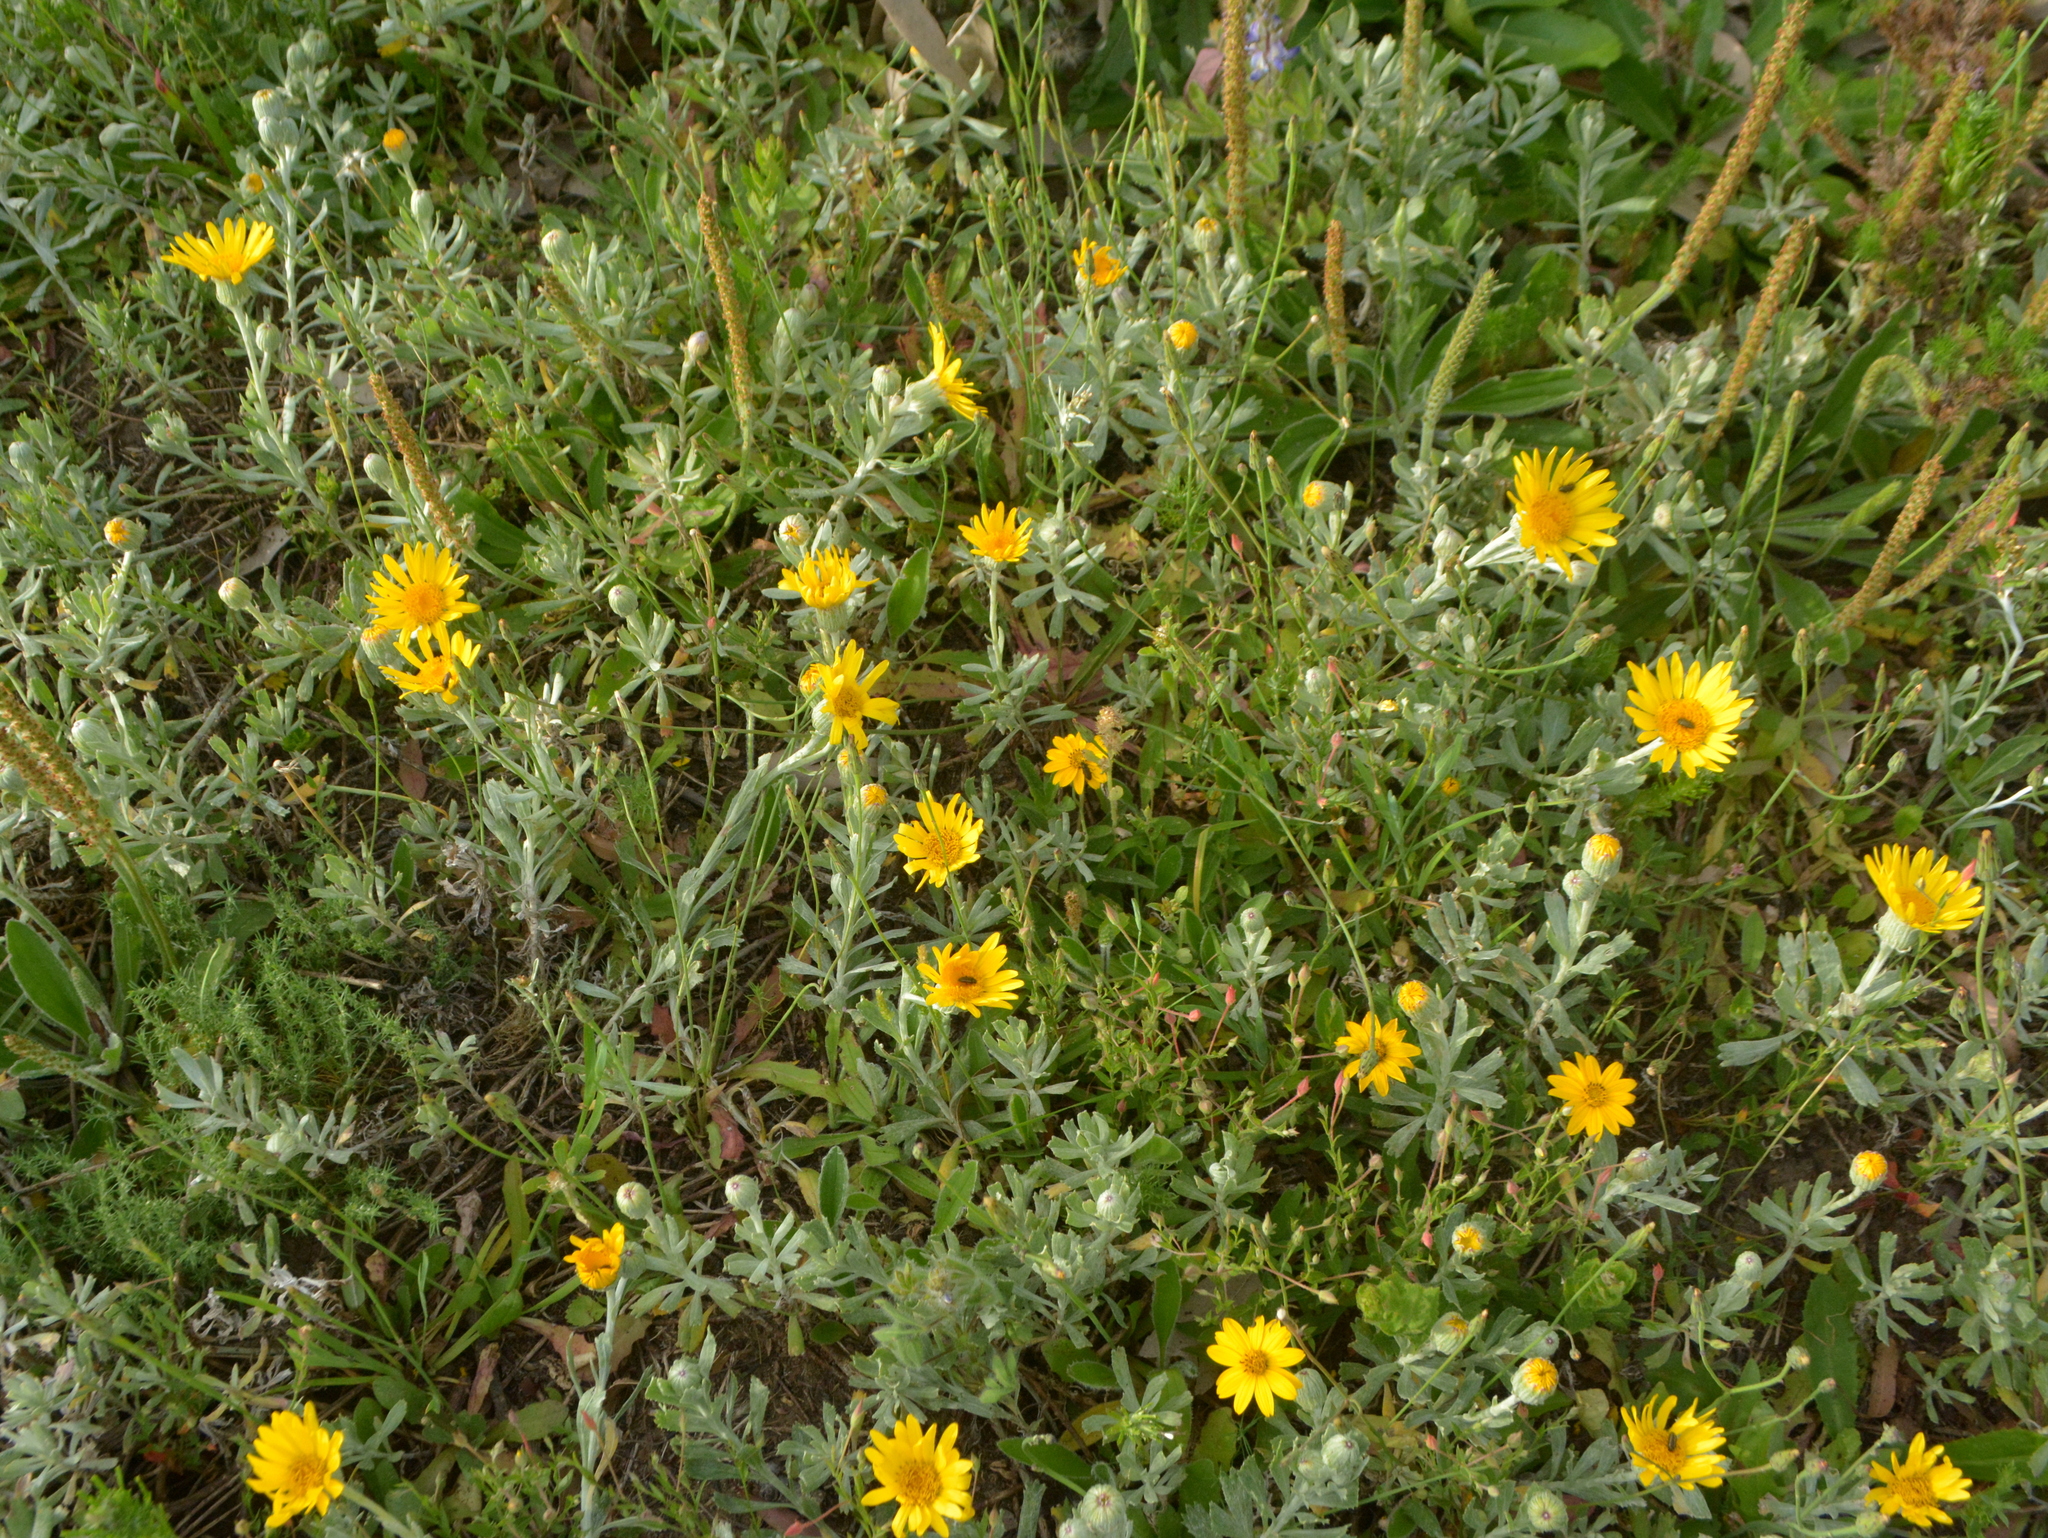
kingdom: Plantae
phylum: Tracheophyta
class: Magnoliopsida
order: Asterales
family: Asteraceae
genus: Senecio
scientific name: Senecio ceratophylloides
